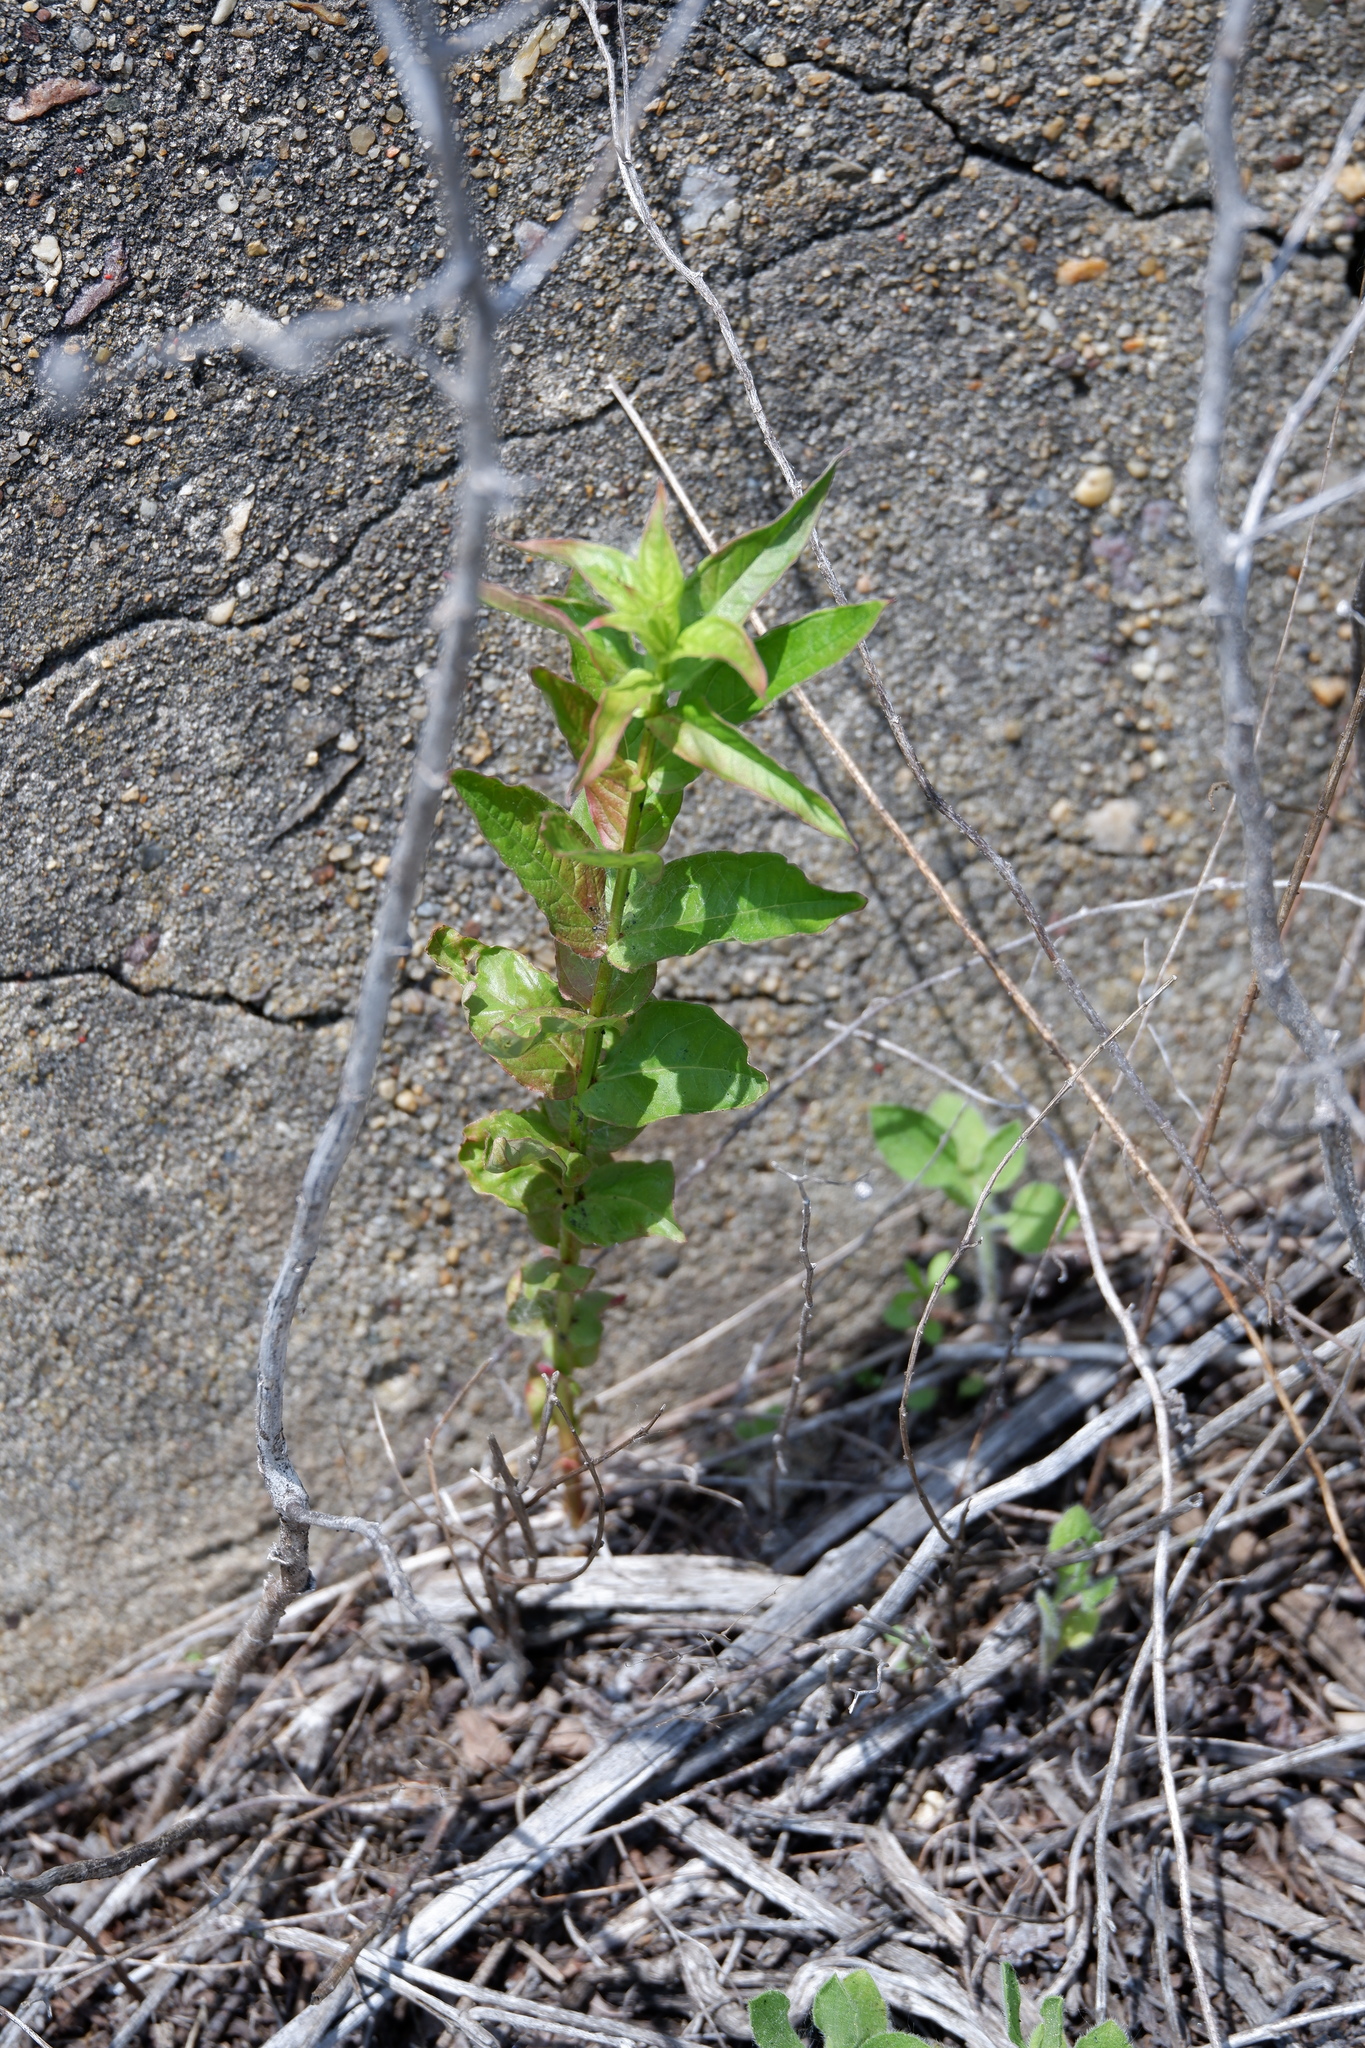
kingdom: Plantae
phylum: Tracheophyta
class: Magnoliopsida
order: Myrtales
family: Lythraceae
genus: Lythrum
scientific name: Lythrum salicaria
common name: Purple loosestrife
